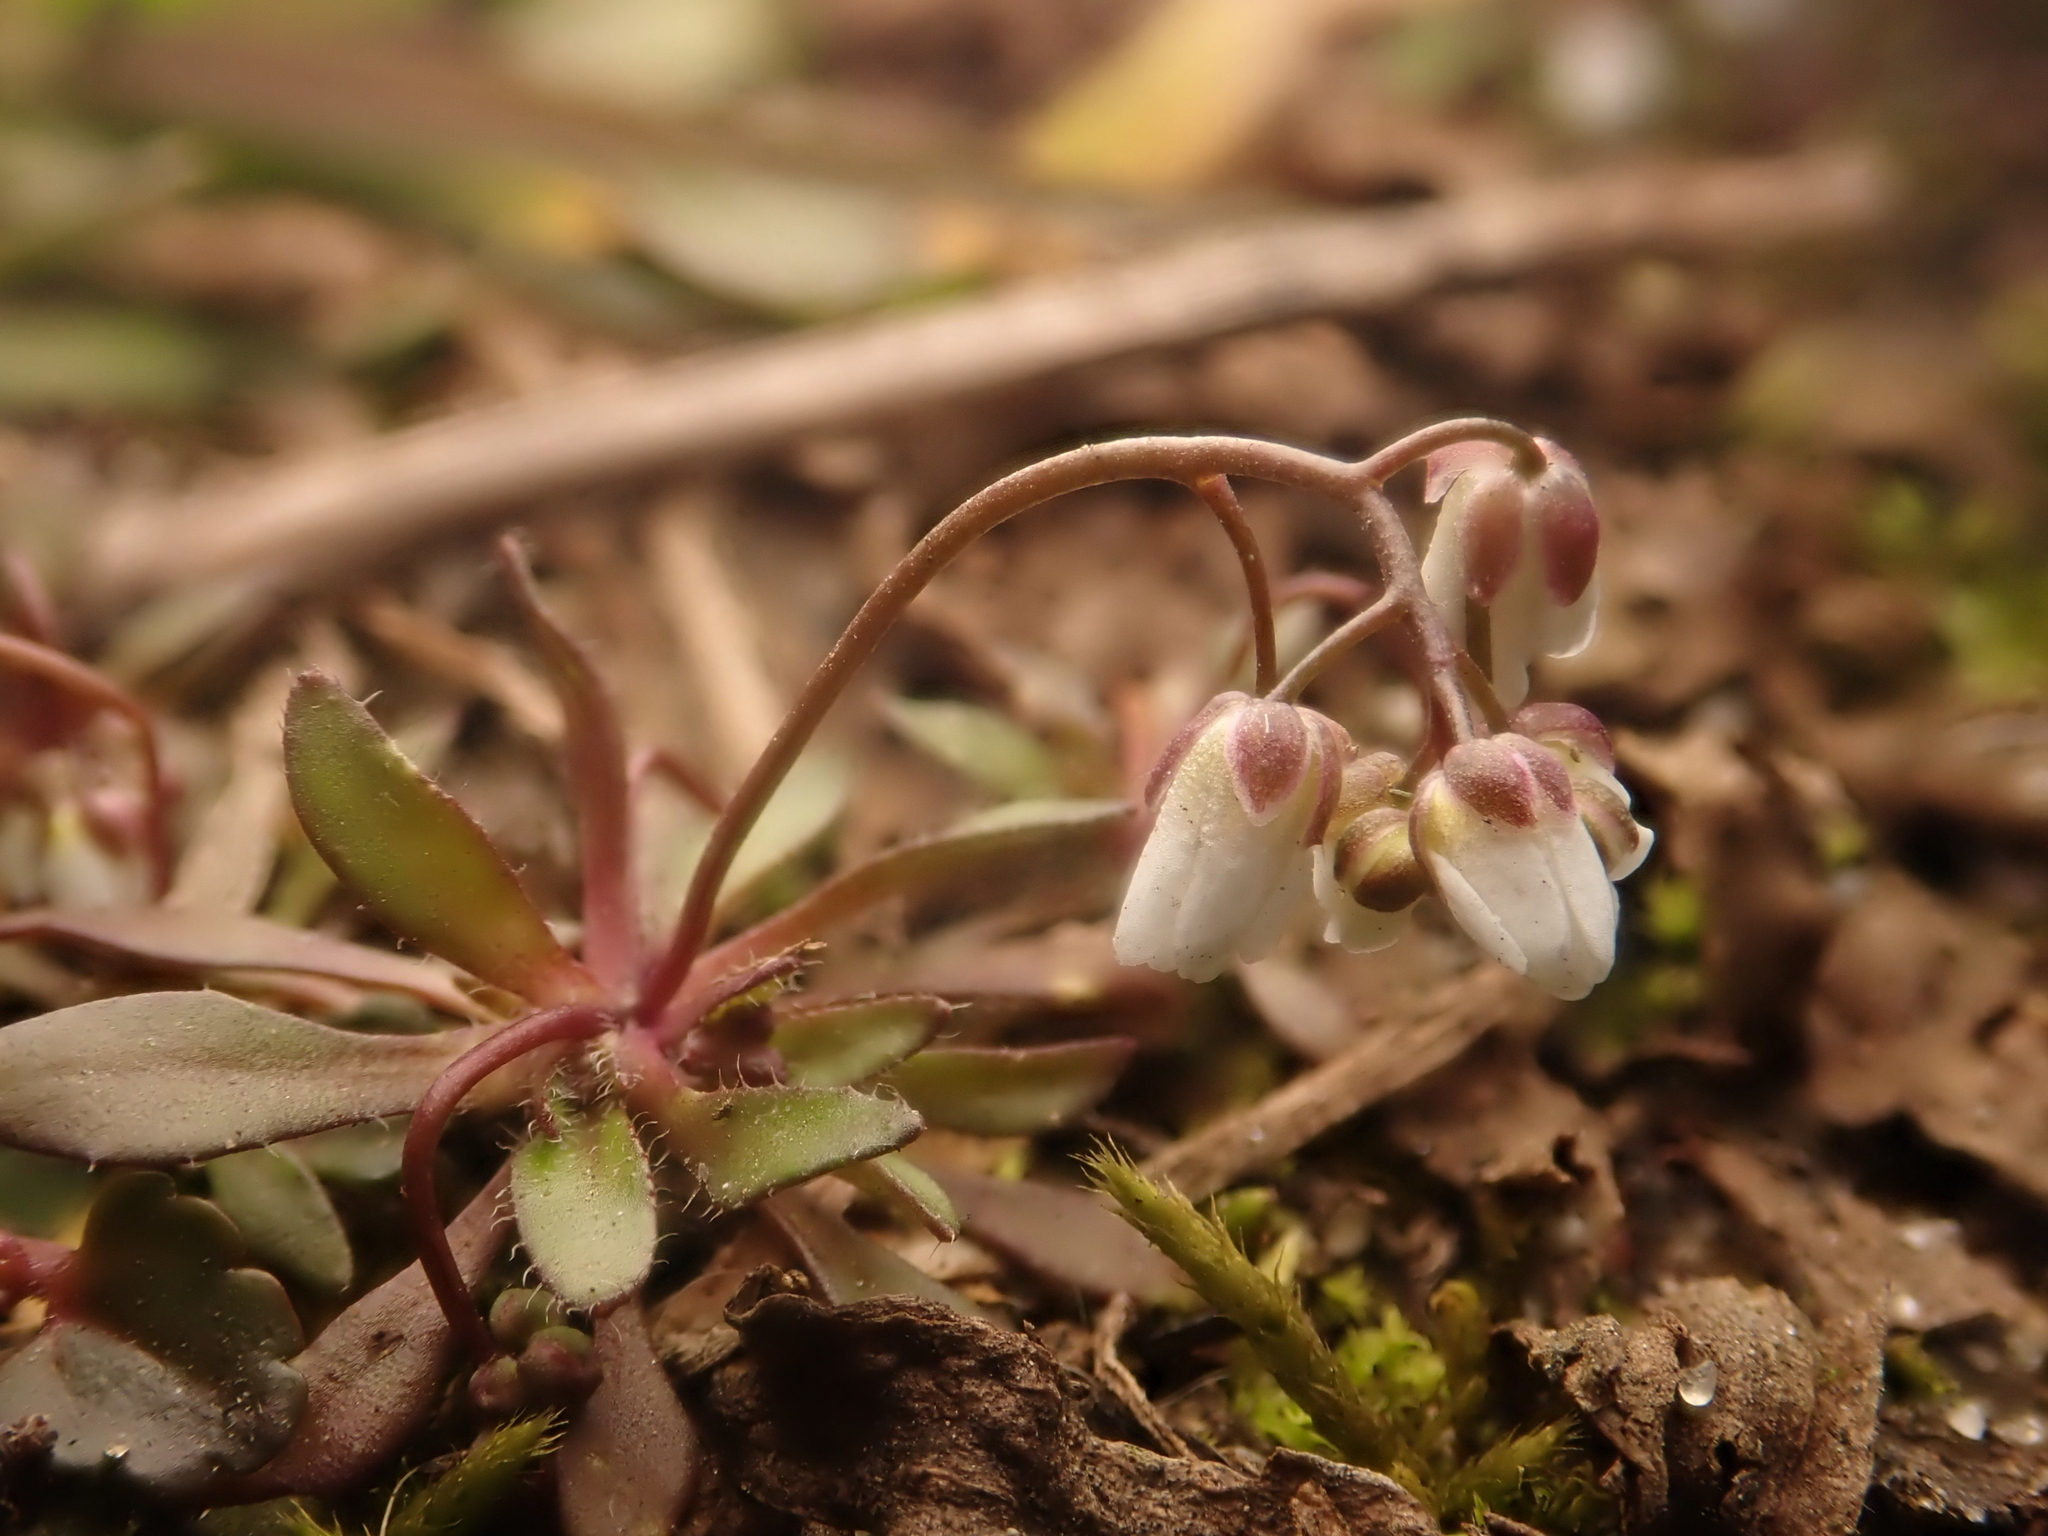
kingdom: Plantae
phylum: Tracheophyta
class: Magnoliopsida
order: Brassicales
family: Brassicaceae
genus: Draba
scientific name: Draba verna
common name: Spring draba
